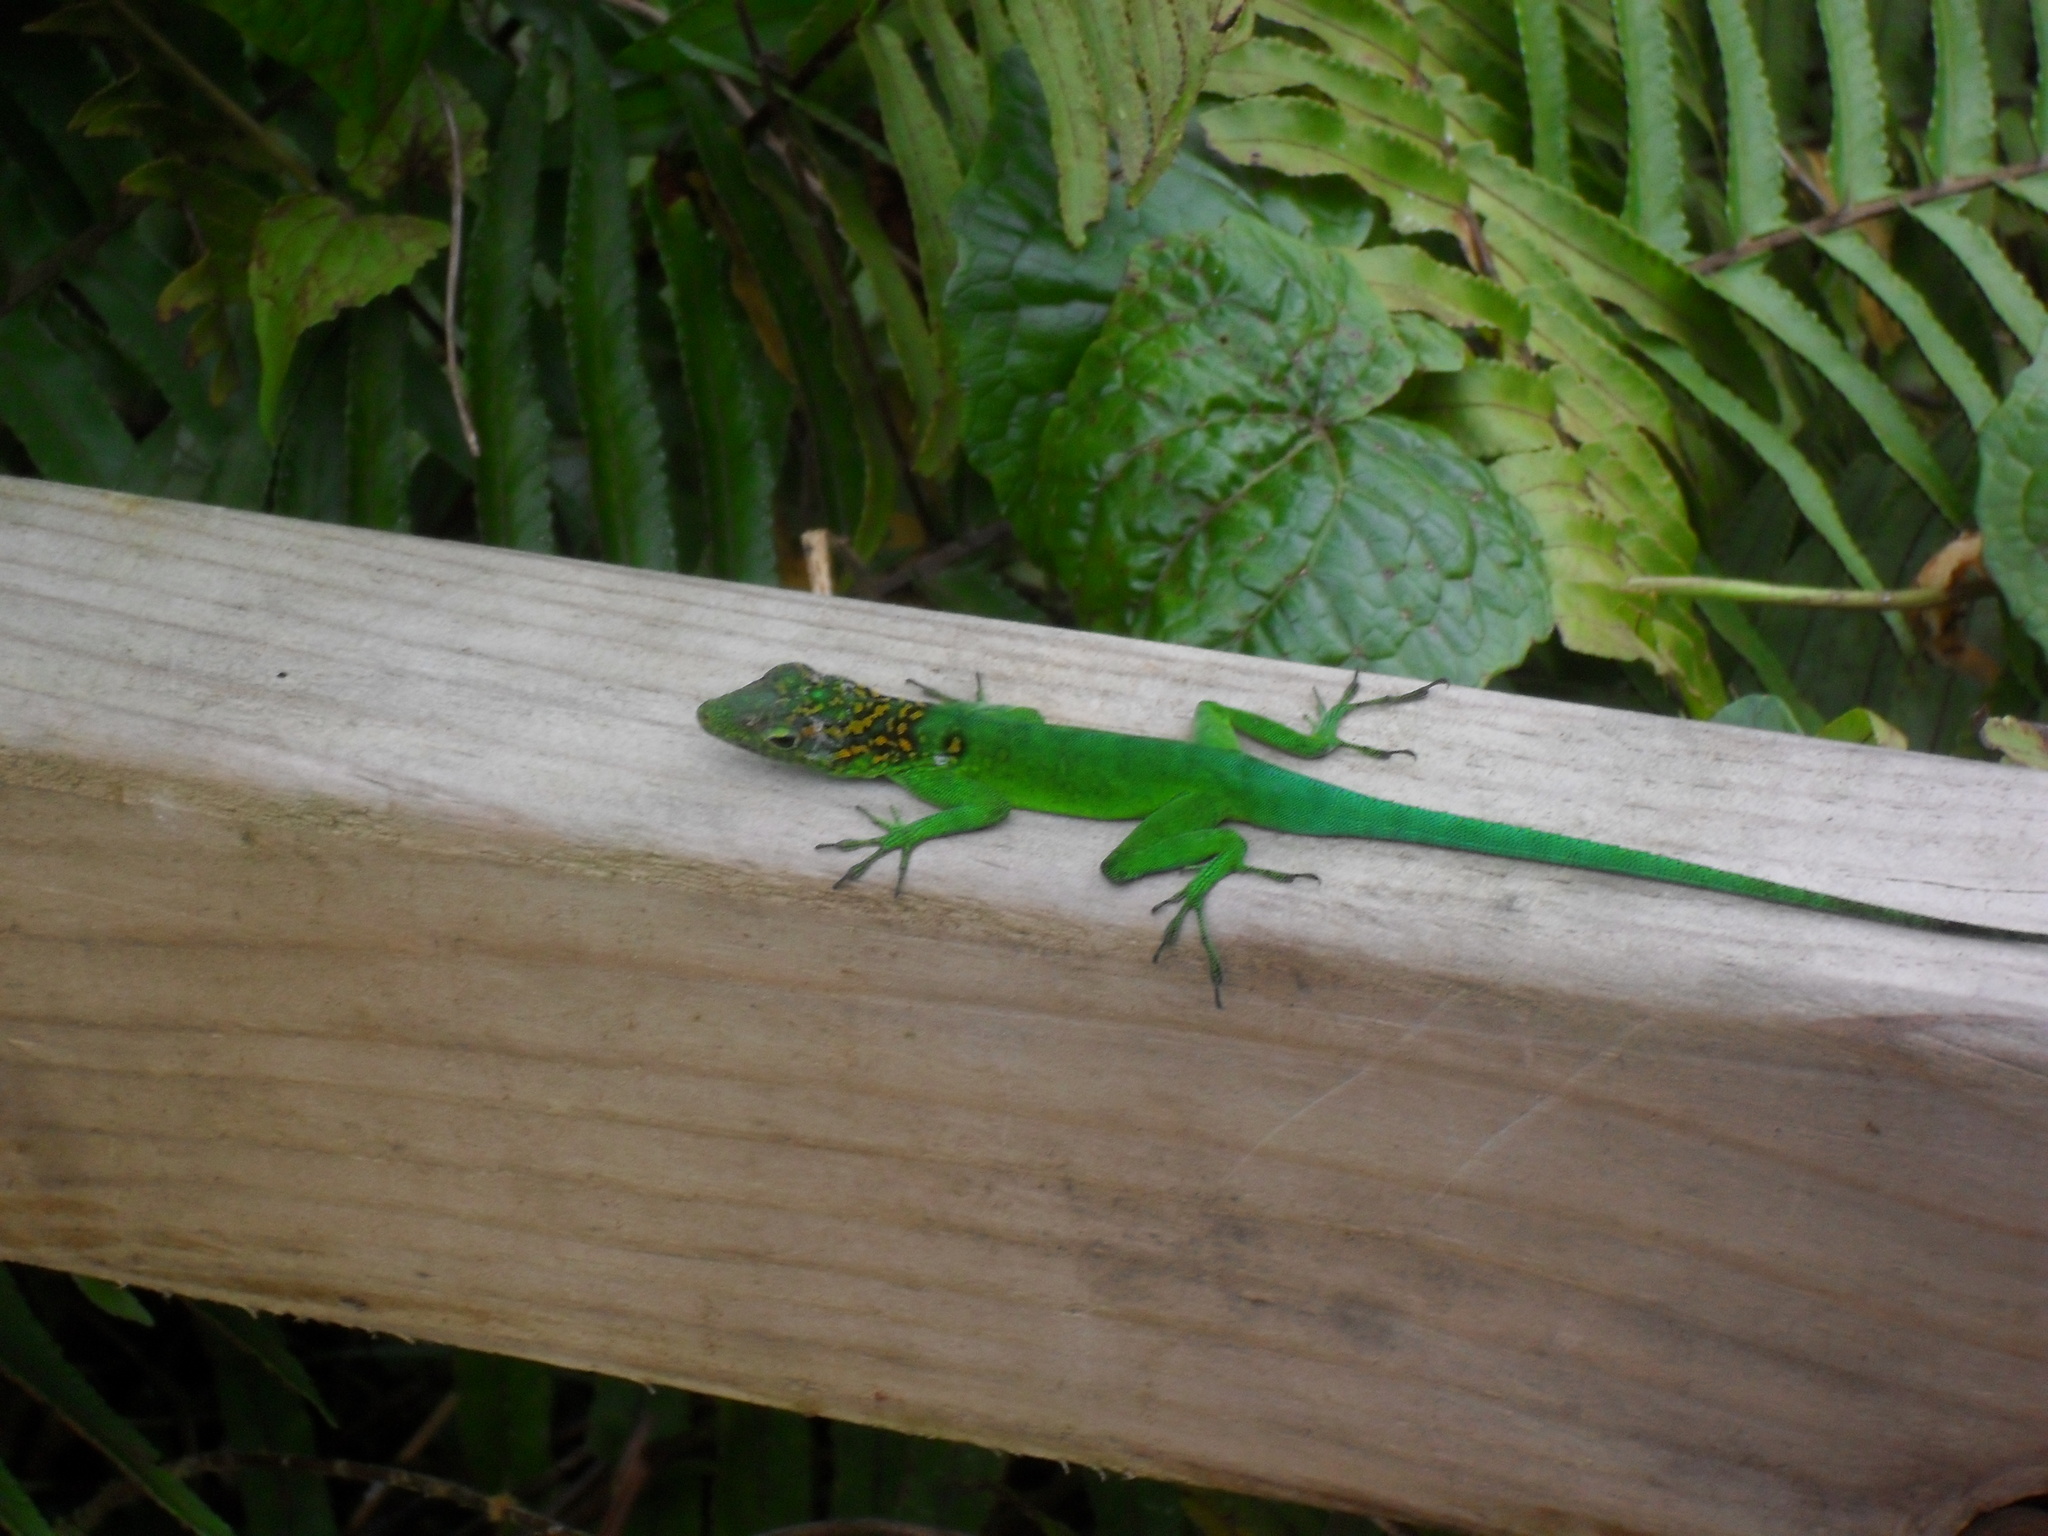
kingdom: Animalia
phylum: Chordata
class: Squamata
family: Dactyloidae
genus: Anolis
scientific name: Anolis marmoratus
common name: Guadeloupe anole
